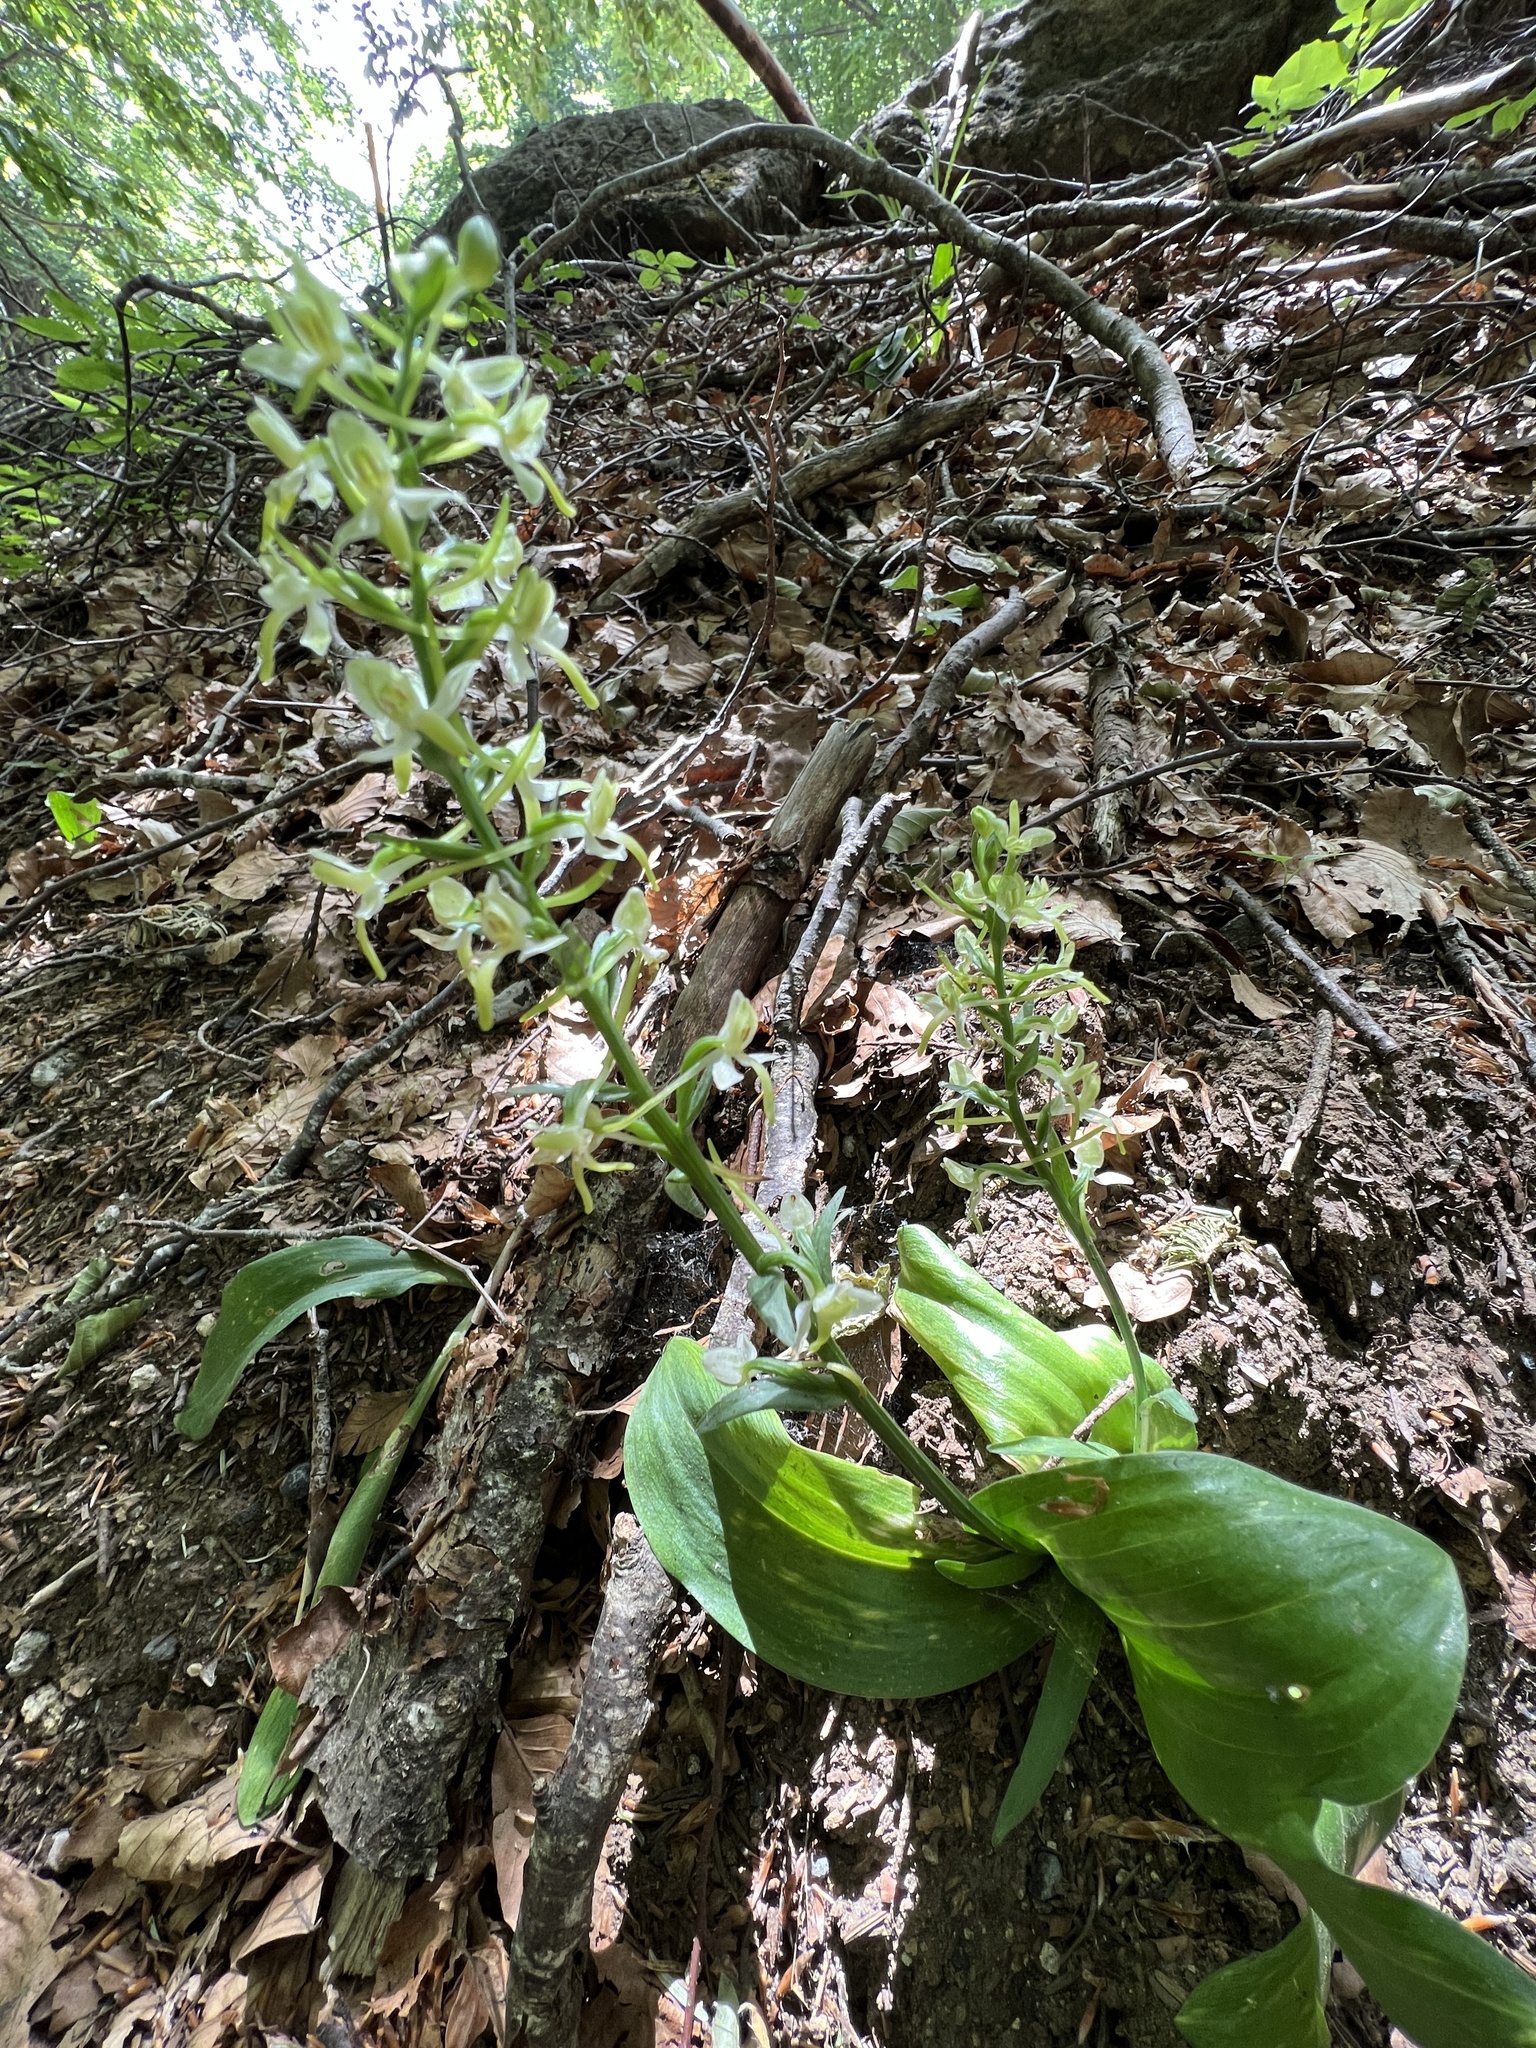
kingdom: Plantae
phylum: Tracheophyta
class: Liliopsida
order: Asparagales
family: Orchidaceae
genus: Platanthera
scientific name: Platanthera chlorantha
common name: Greater butterfly-orchid
